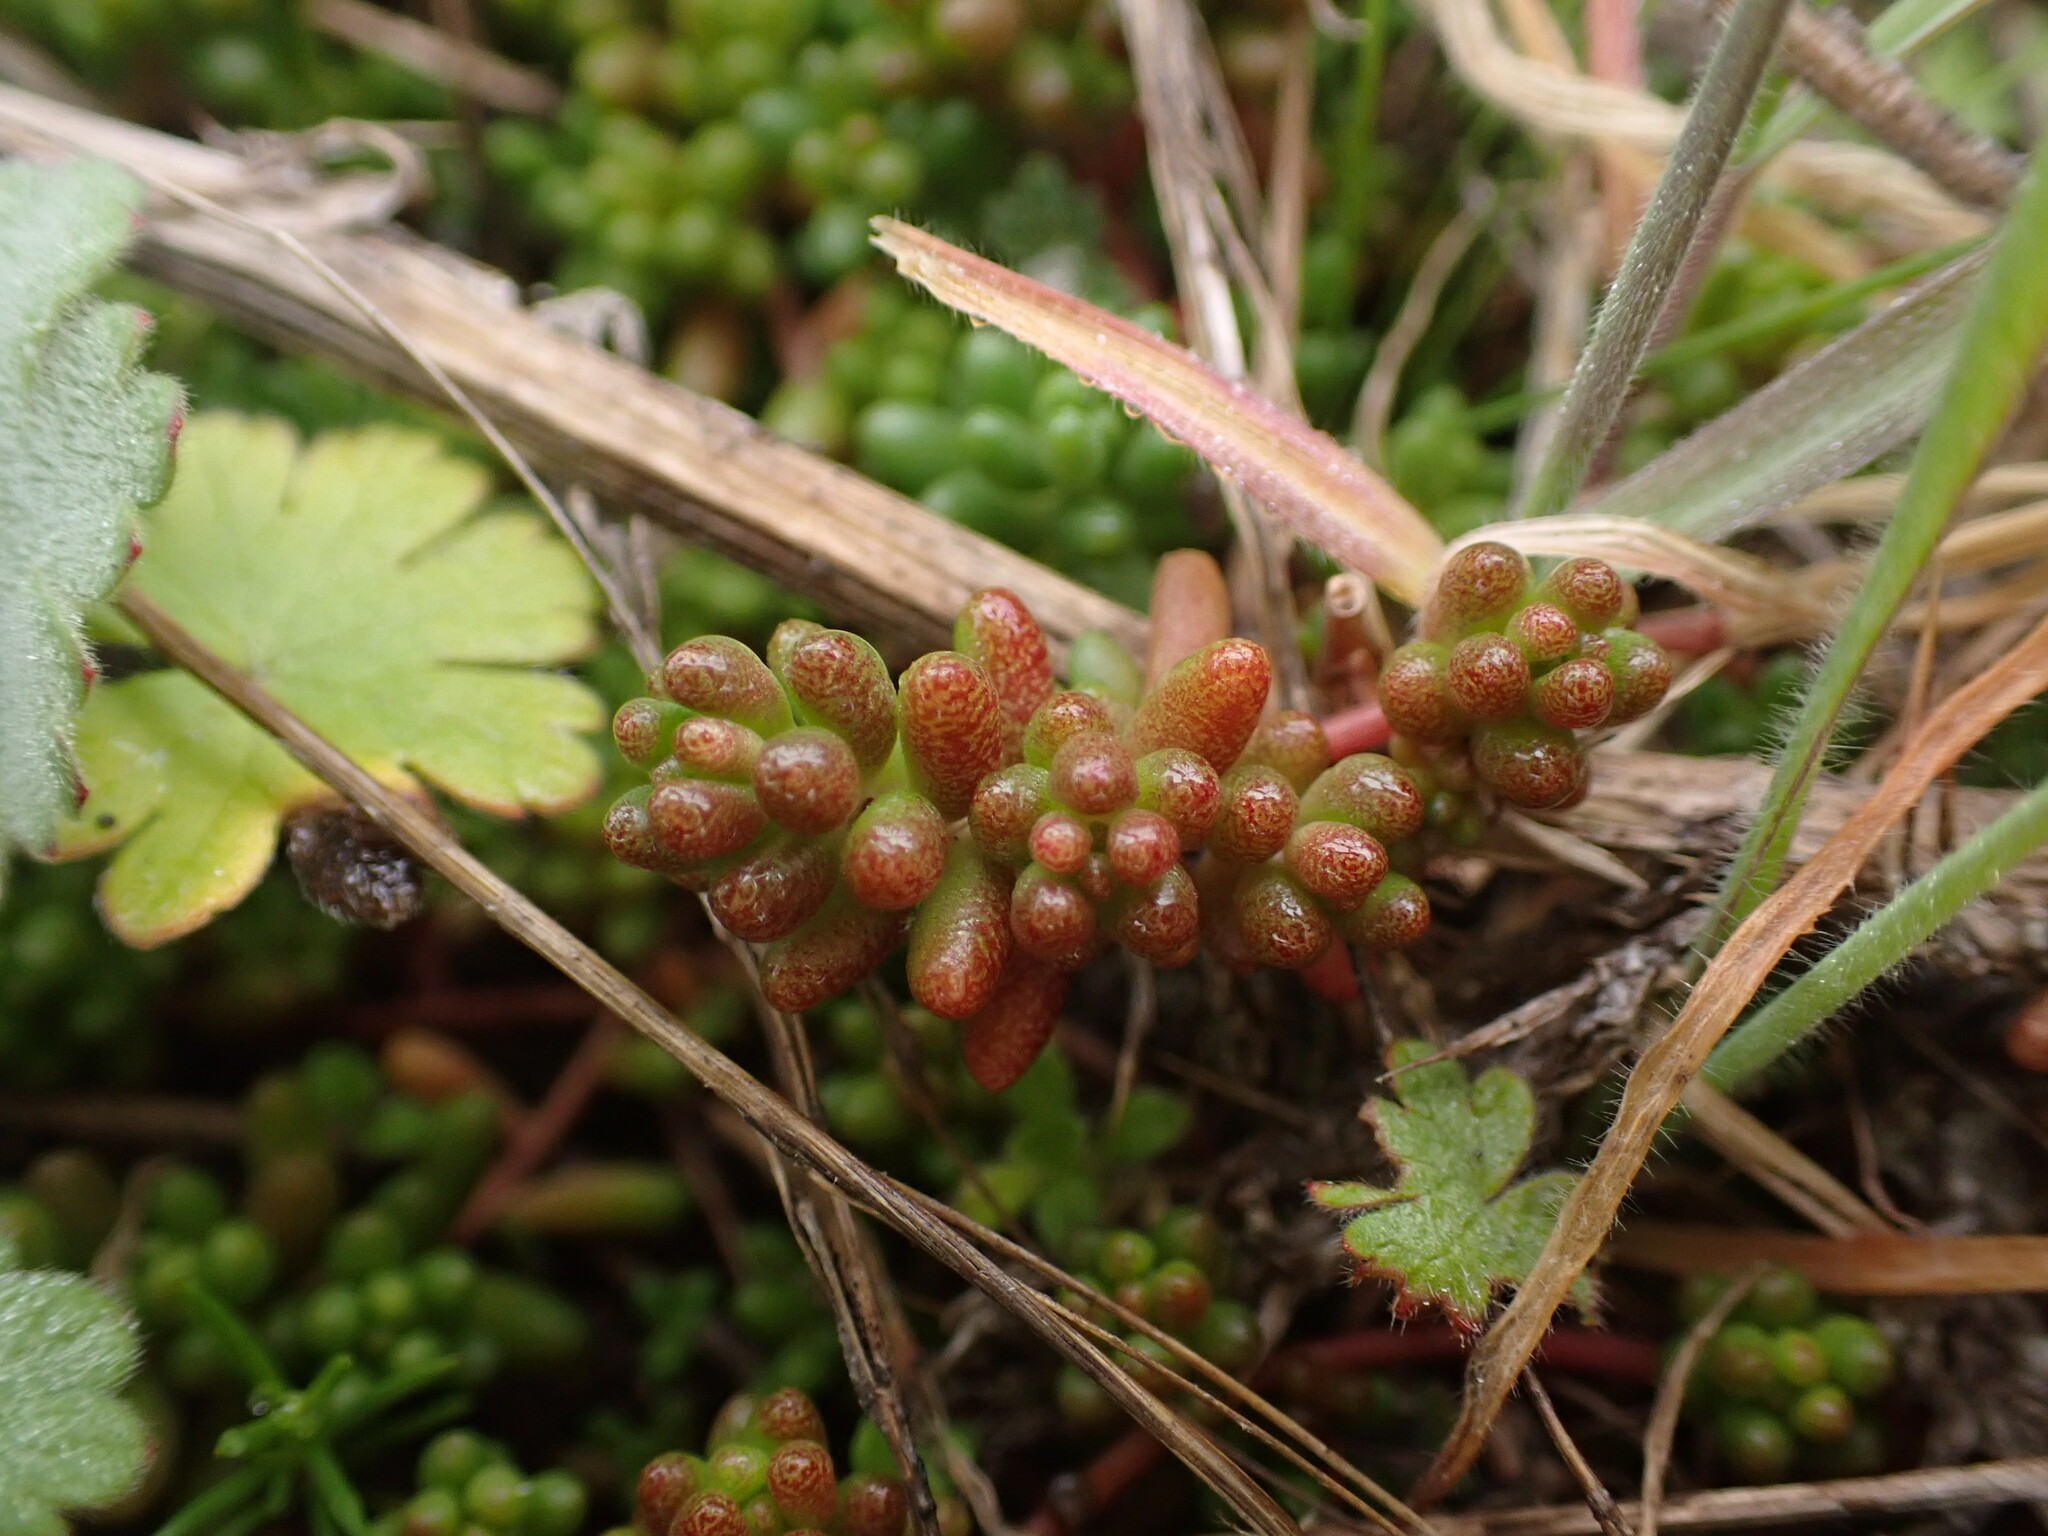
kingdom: Plantae
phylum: Tracheophyta
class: Magnoliopsida
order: Saxifragales
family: Crassulaceae
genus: Sedum
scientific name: Sedum album
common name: White stonecrop
